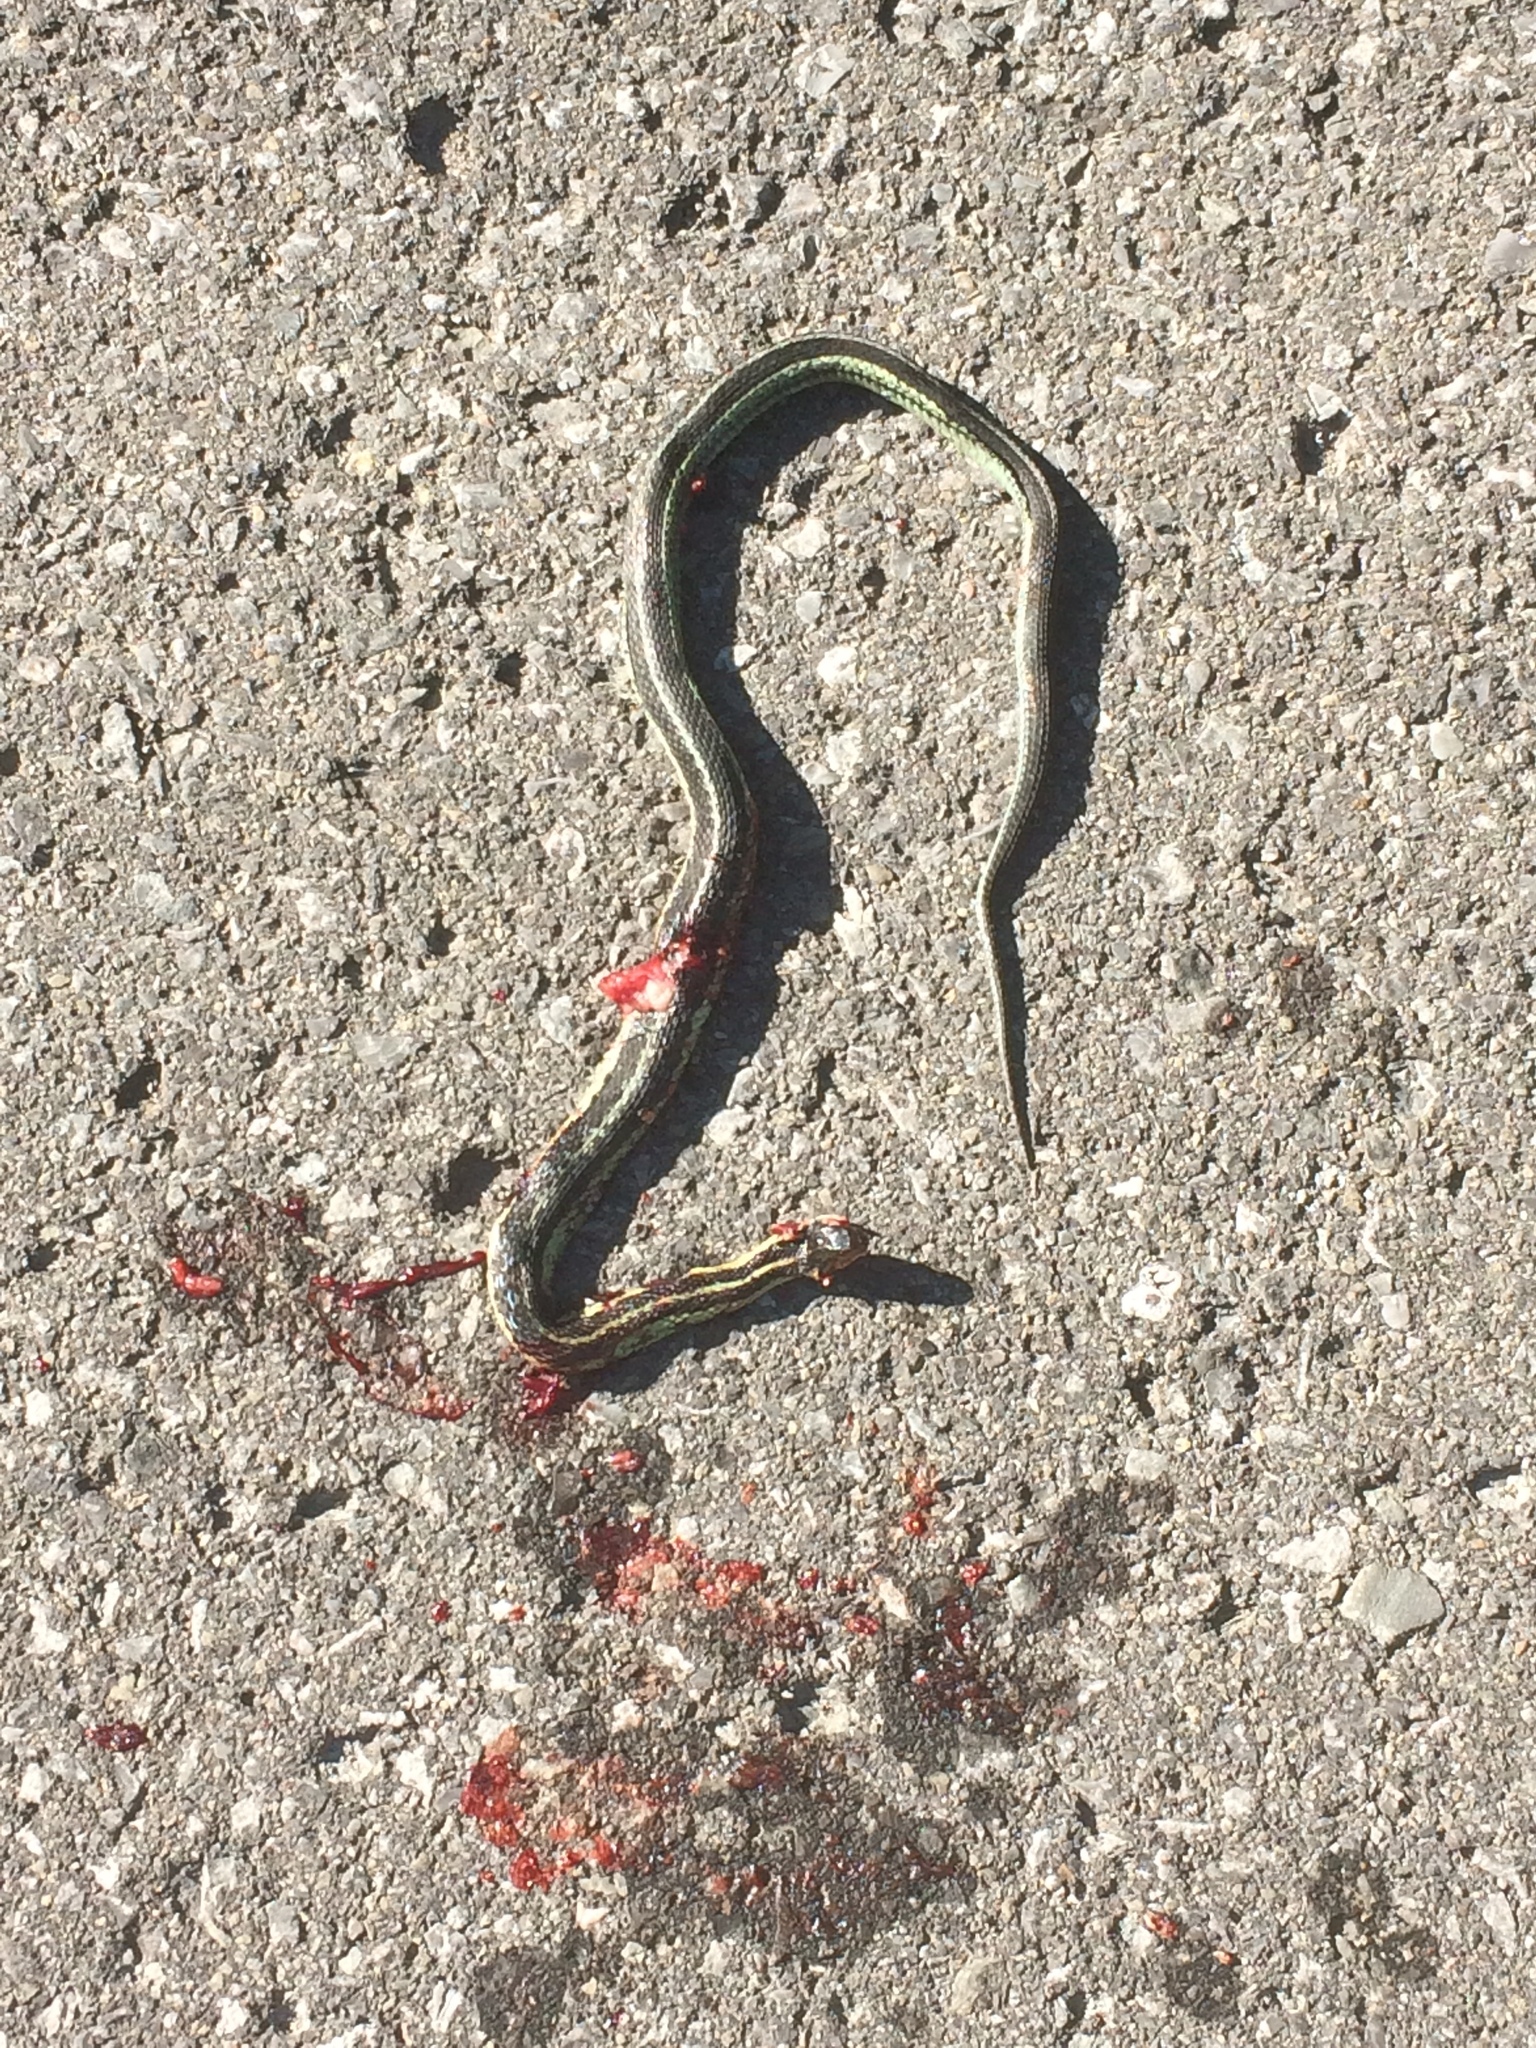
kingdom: Animalia
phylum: Chordata
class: Squamata
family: Colubridae
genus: Thamnophis
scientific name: Thamnophis sirtalis
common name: Common garter snake
